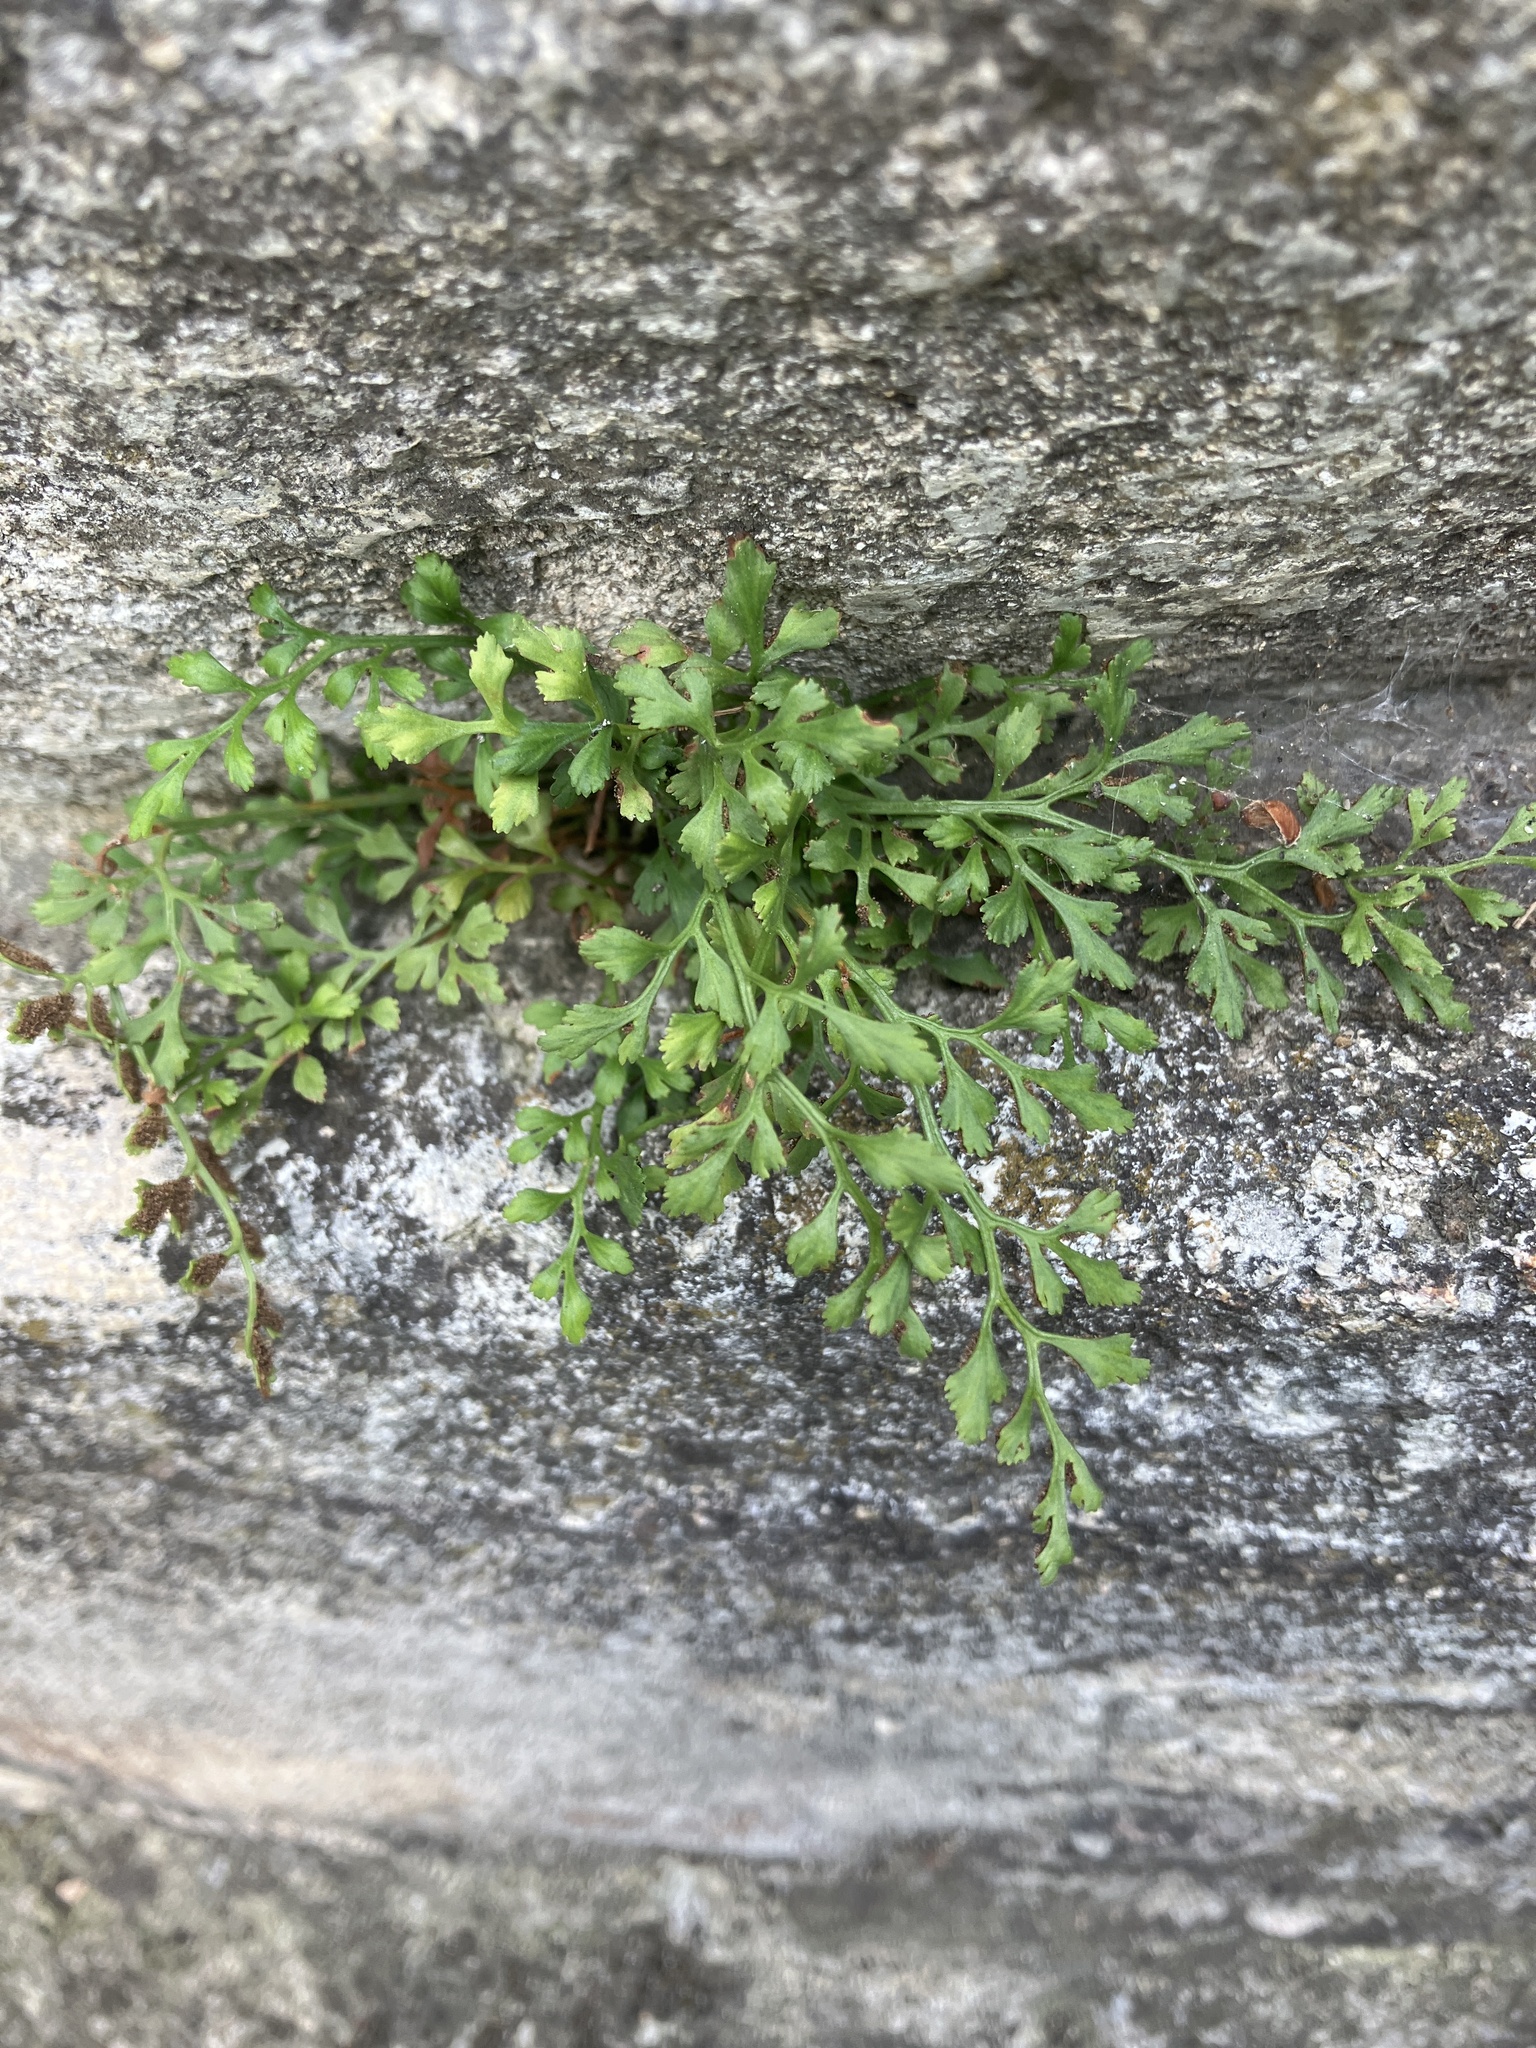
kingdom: Plantae
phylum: Tracheophyta
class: Polypodiopsida
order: Polypodiales
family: Aspleniaceae
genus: Asplenium
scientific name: Asplenium ruta-muraria
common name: Wall-rue
